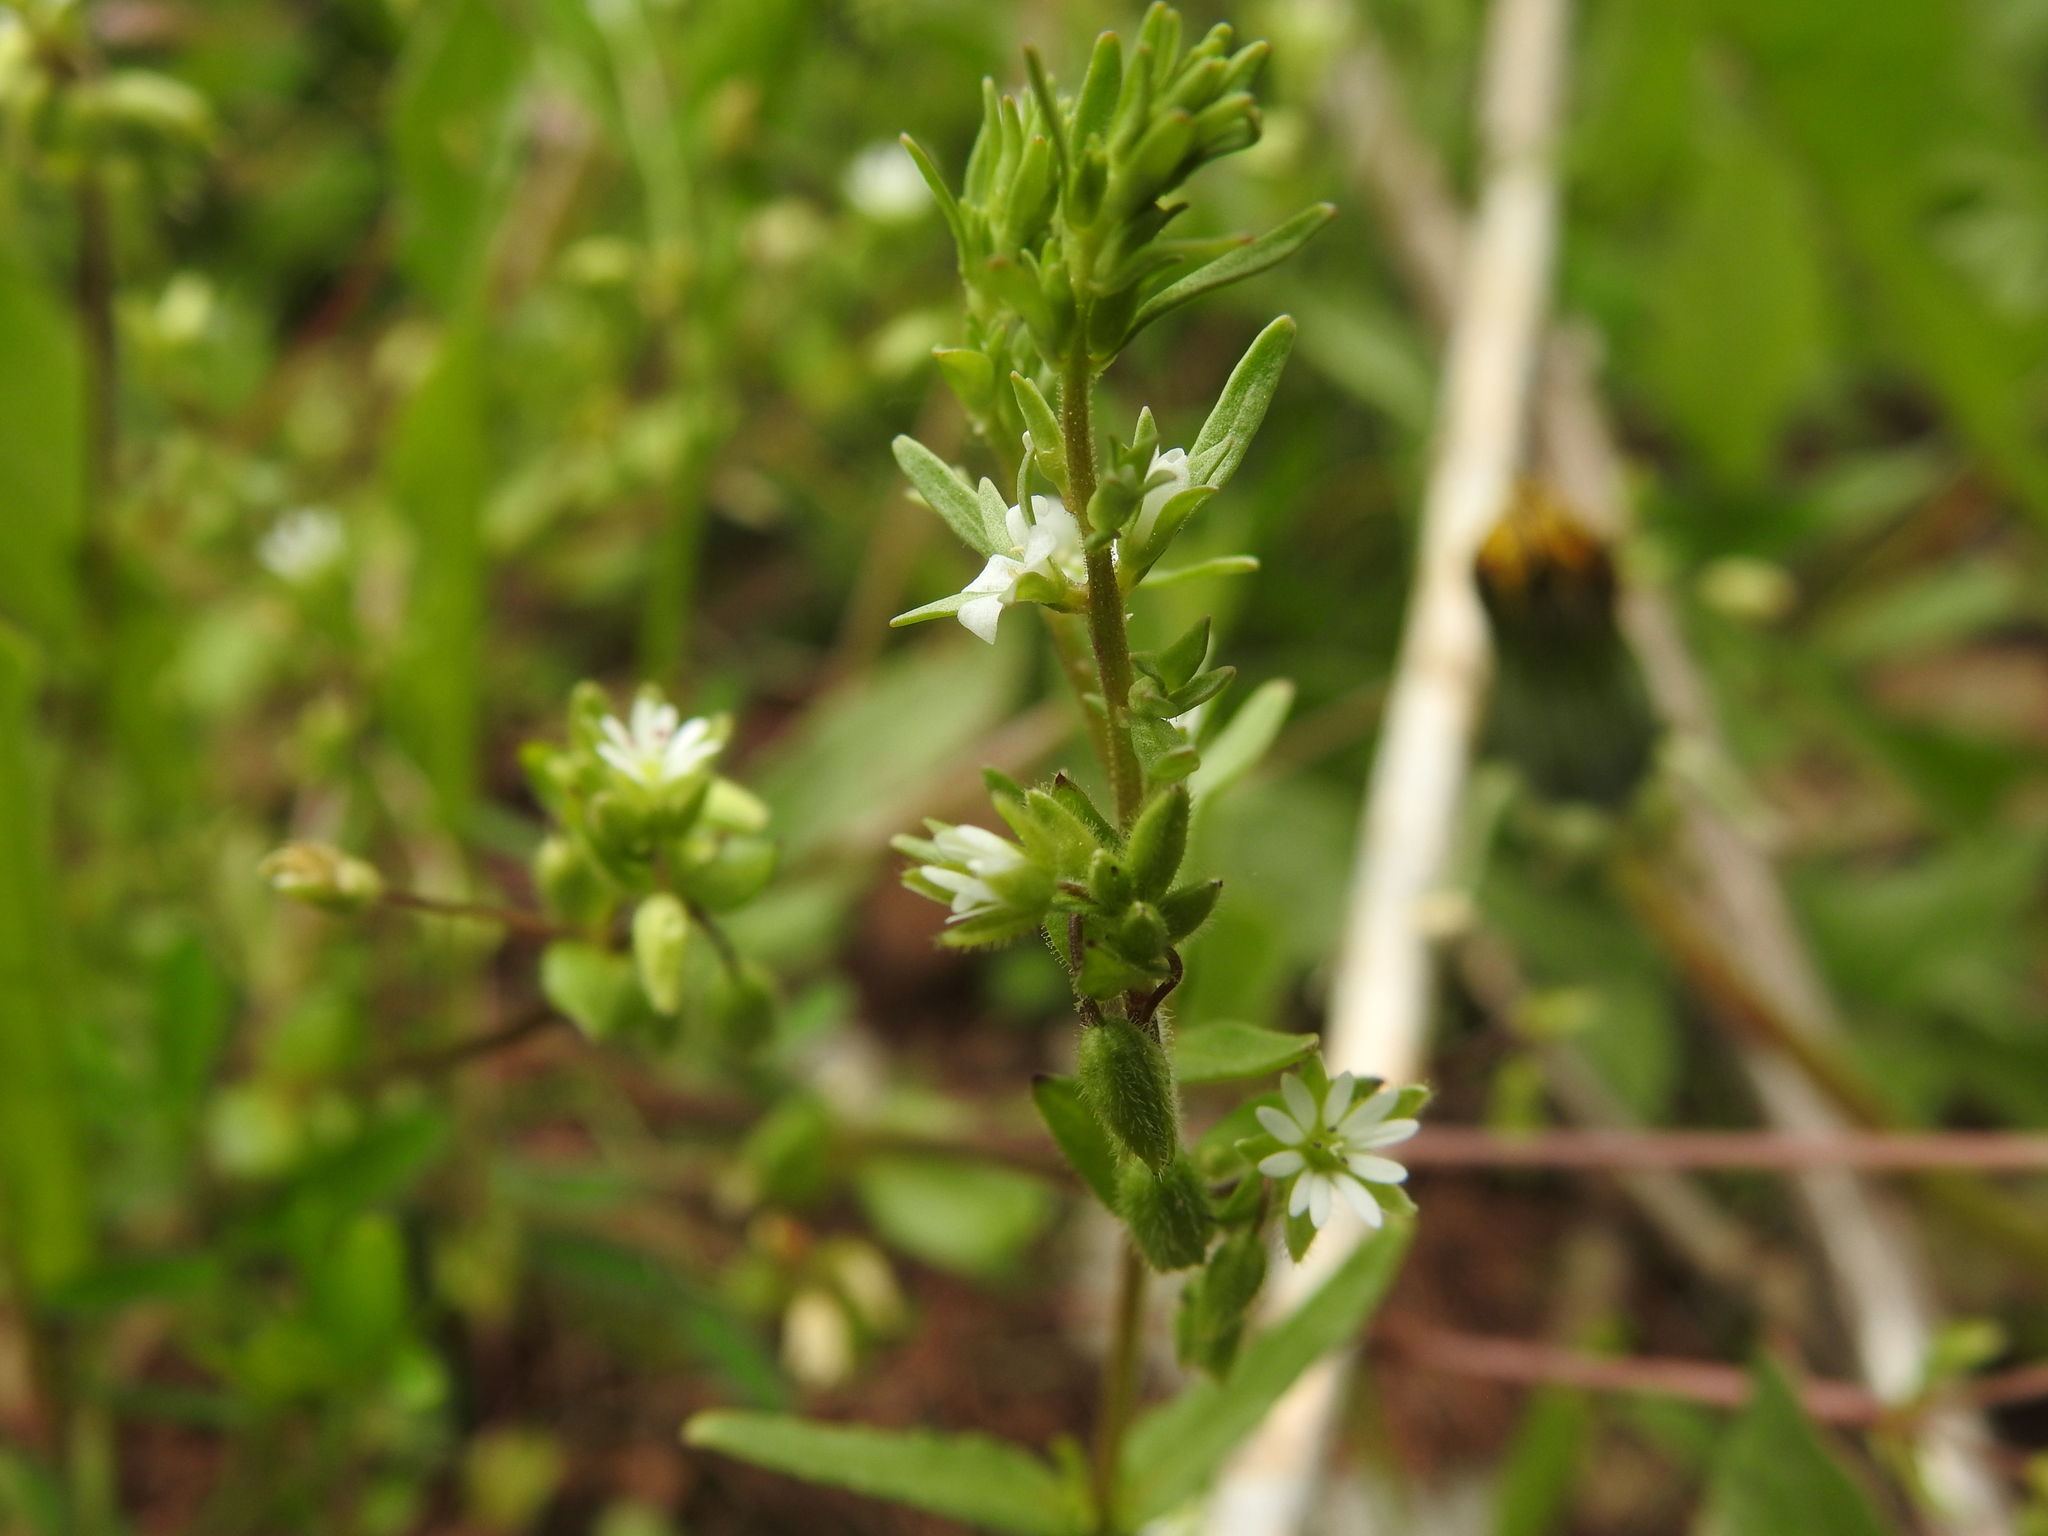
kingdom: Plantae
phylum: Tracheophyta
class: Magnoliopsida
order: Lamiales
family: Plantaginaceae
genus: Veronica
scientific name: Veronica peregrina
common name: Neckweed
